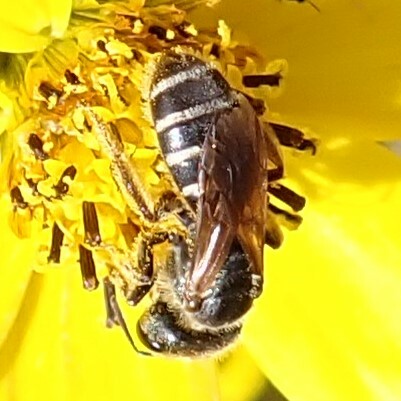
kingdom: Animalia
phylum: Arthropoda
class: Insecta
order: Hymenoptera
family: Halictidae
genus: Halictus
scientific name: Halictus poeyi
